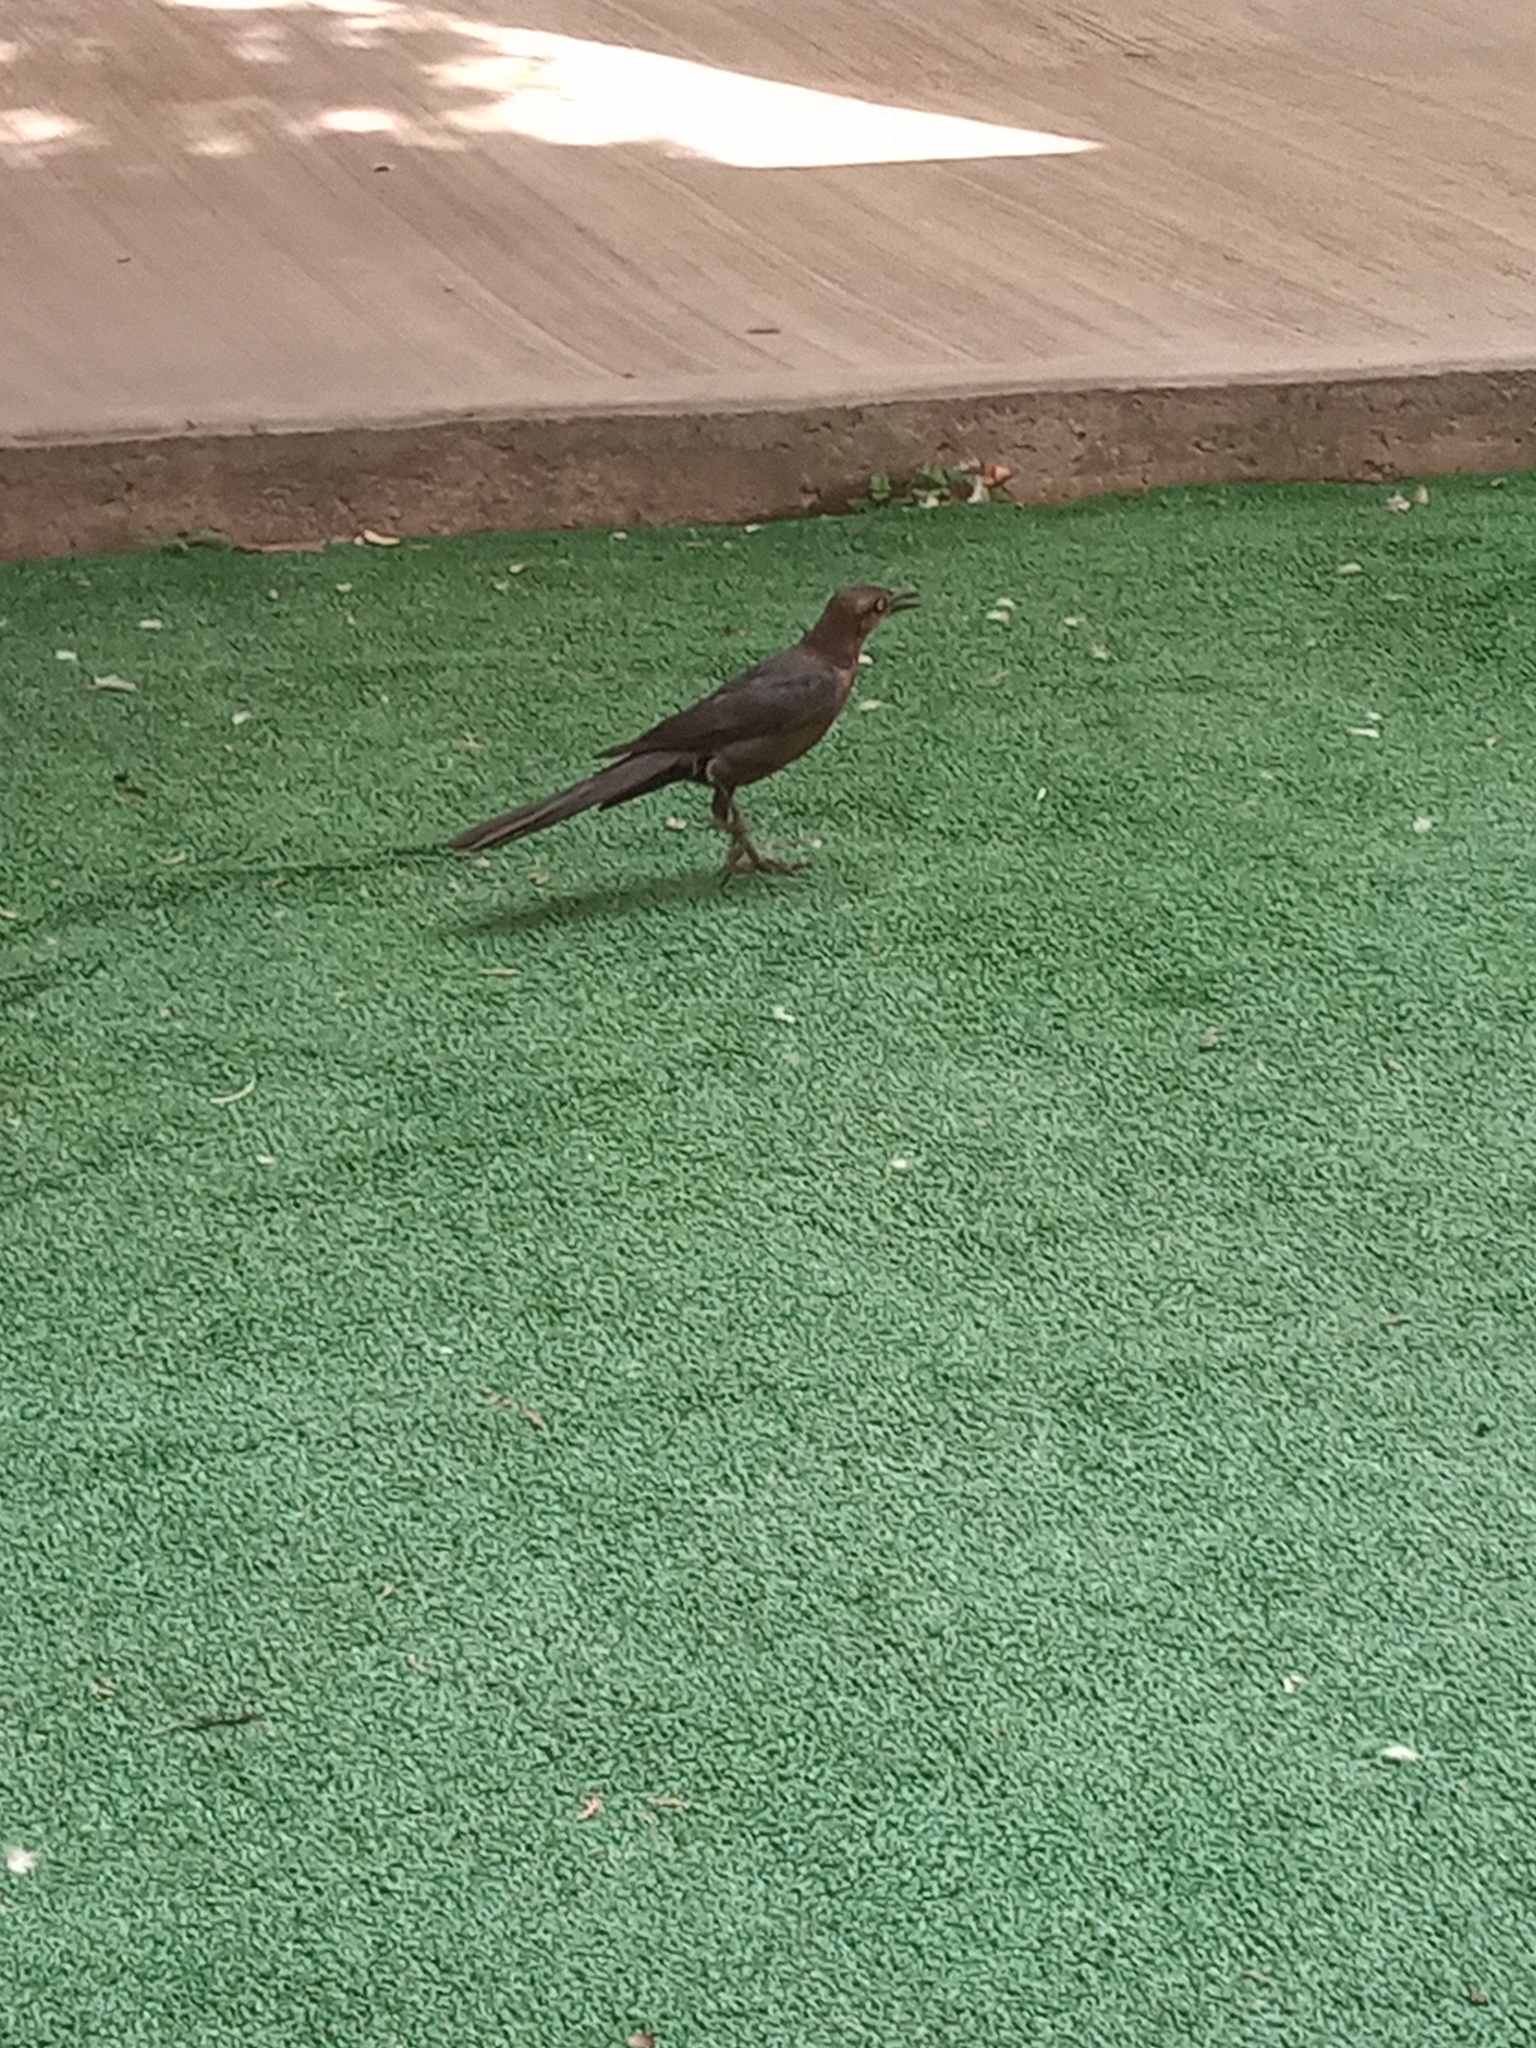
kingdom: Animalia
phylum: Chordata
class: Aves
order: Passeriformes
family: Icteridae
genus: Quiscalus
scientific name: Quiscalus mexicanus
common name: Great-tailed grackle
